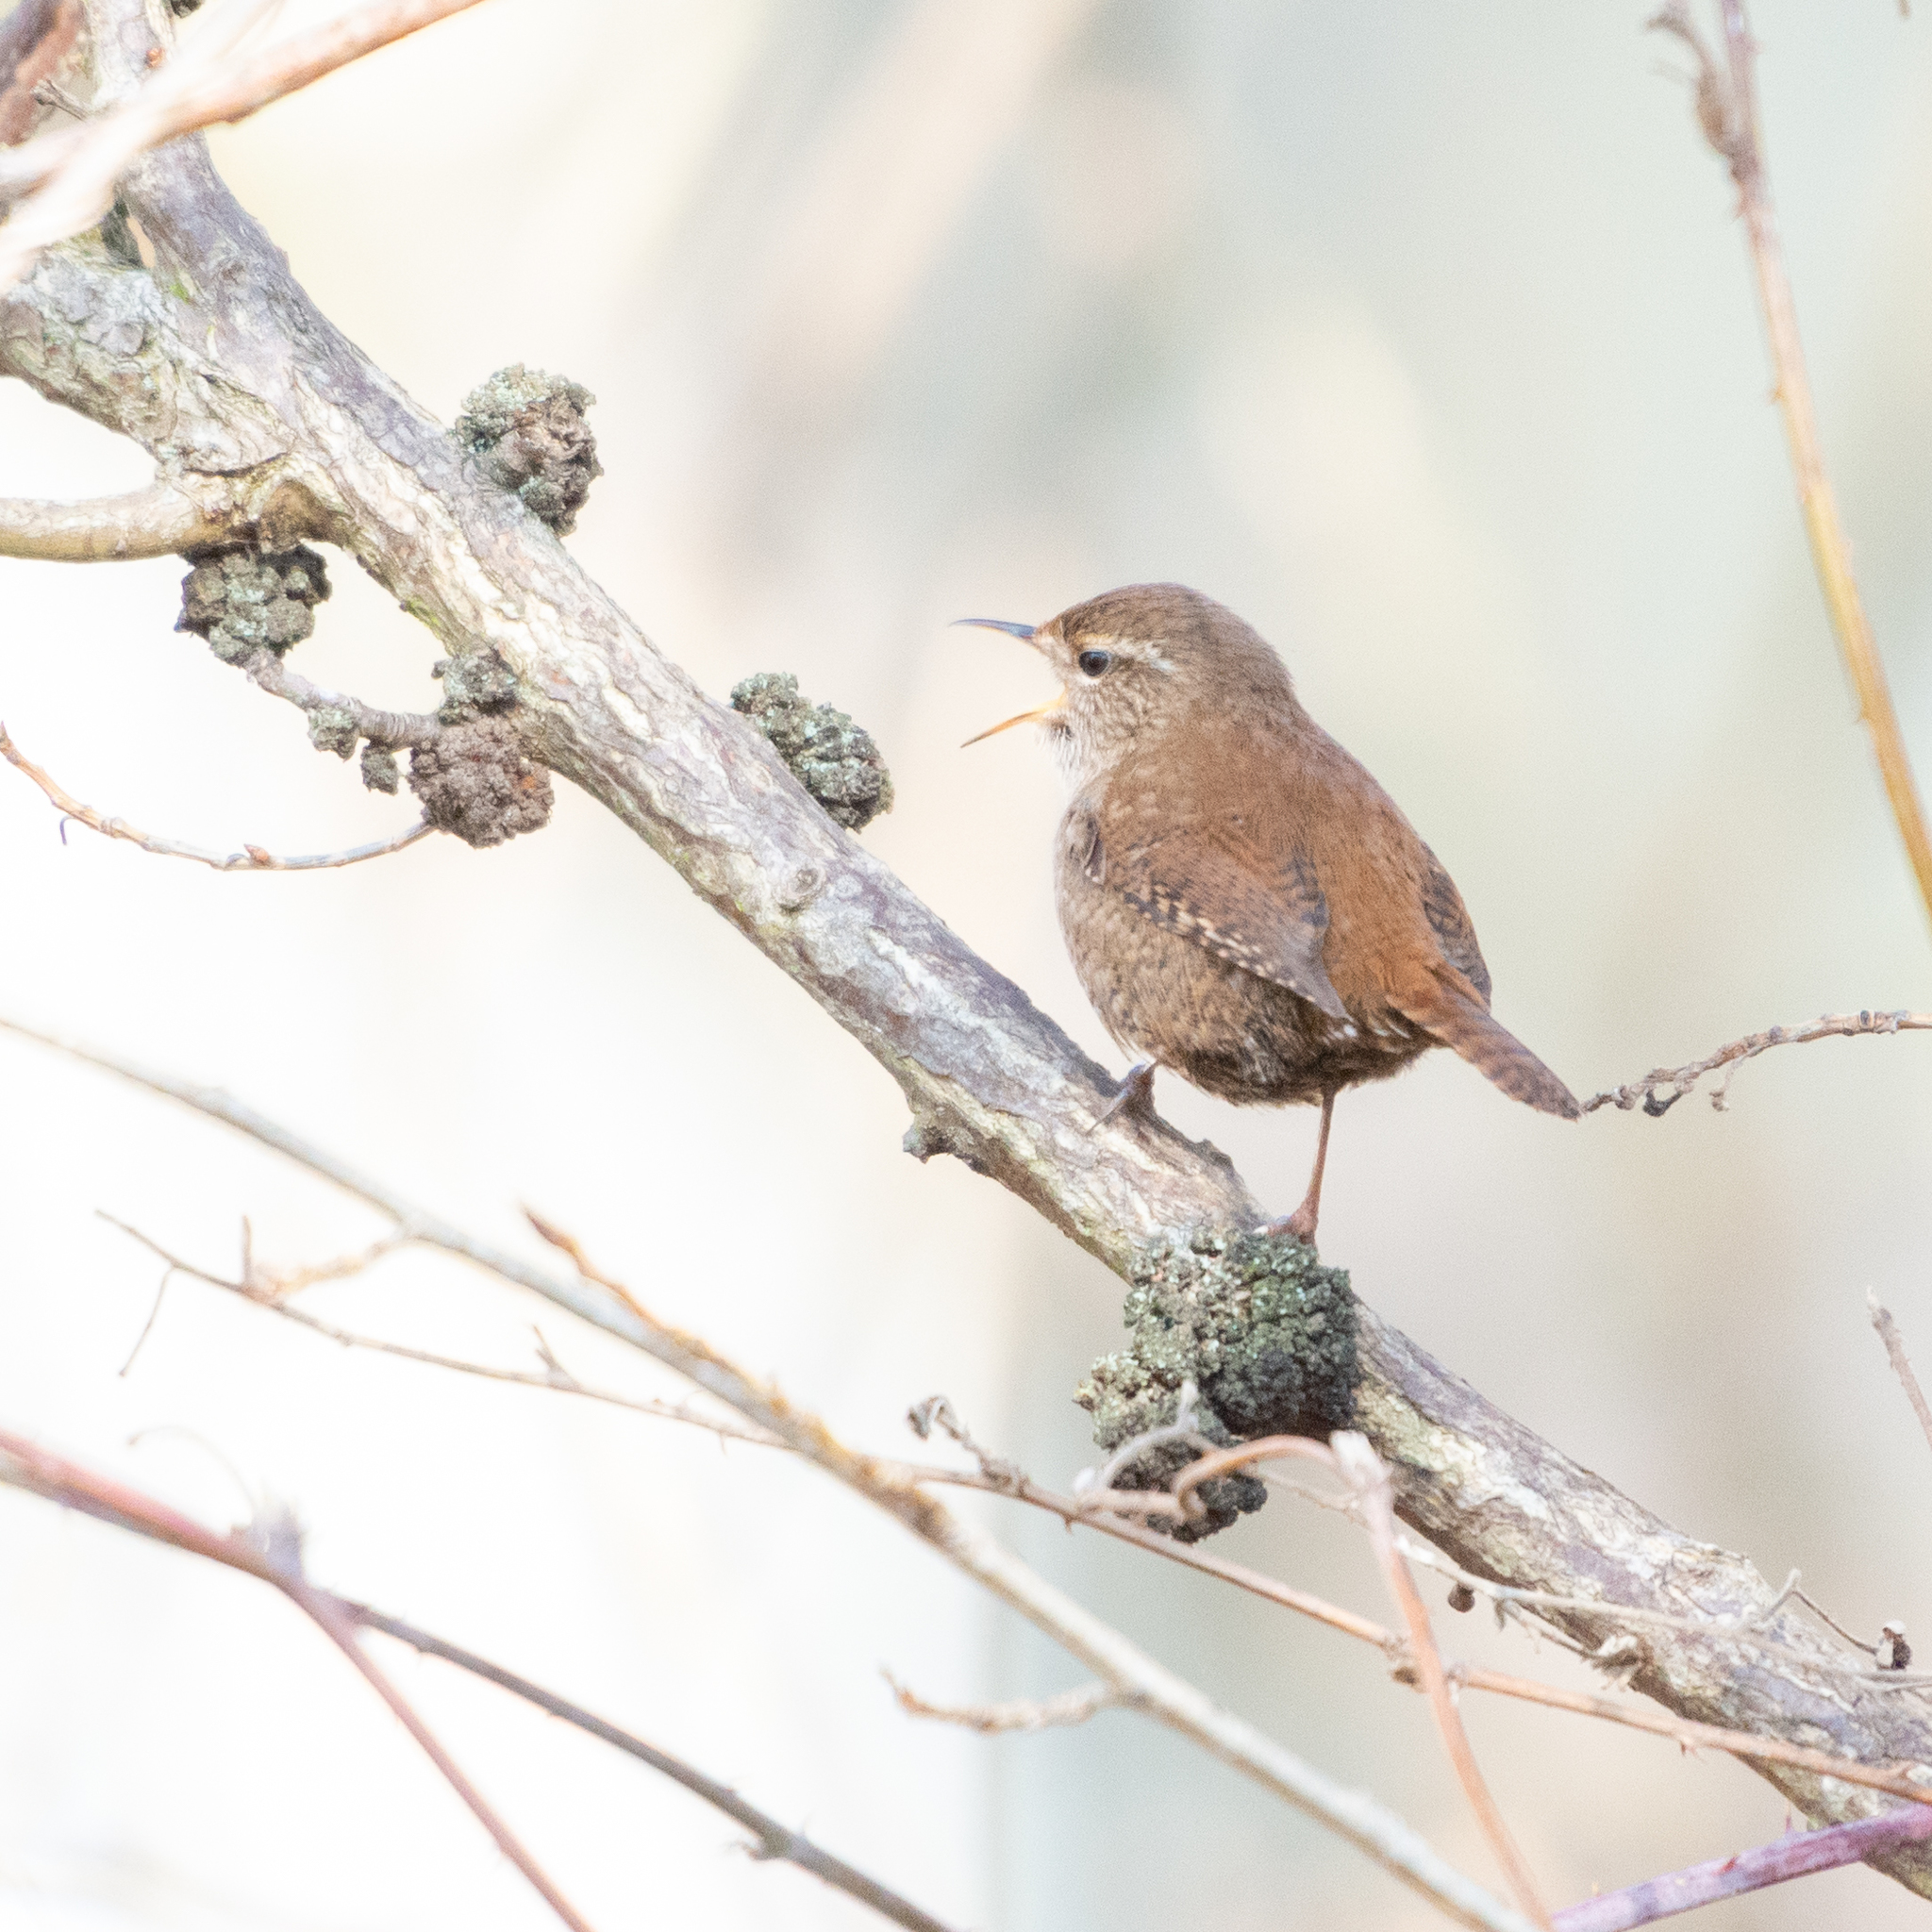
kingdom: Animalia
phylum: Chordata
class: Aves
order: Passeriformes
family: Troglodytidae
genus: Troglodytes
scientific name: Troglodytes troglodytes
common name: Eurasian wren
